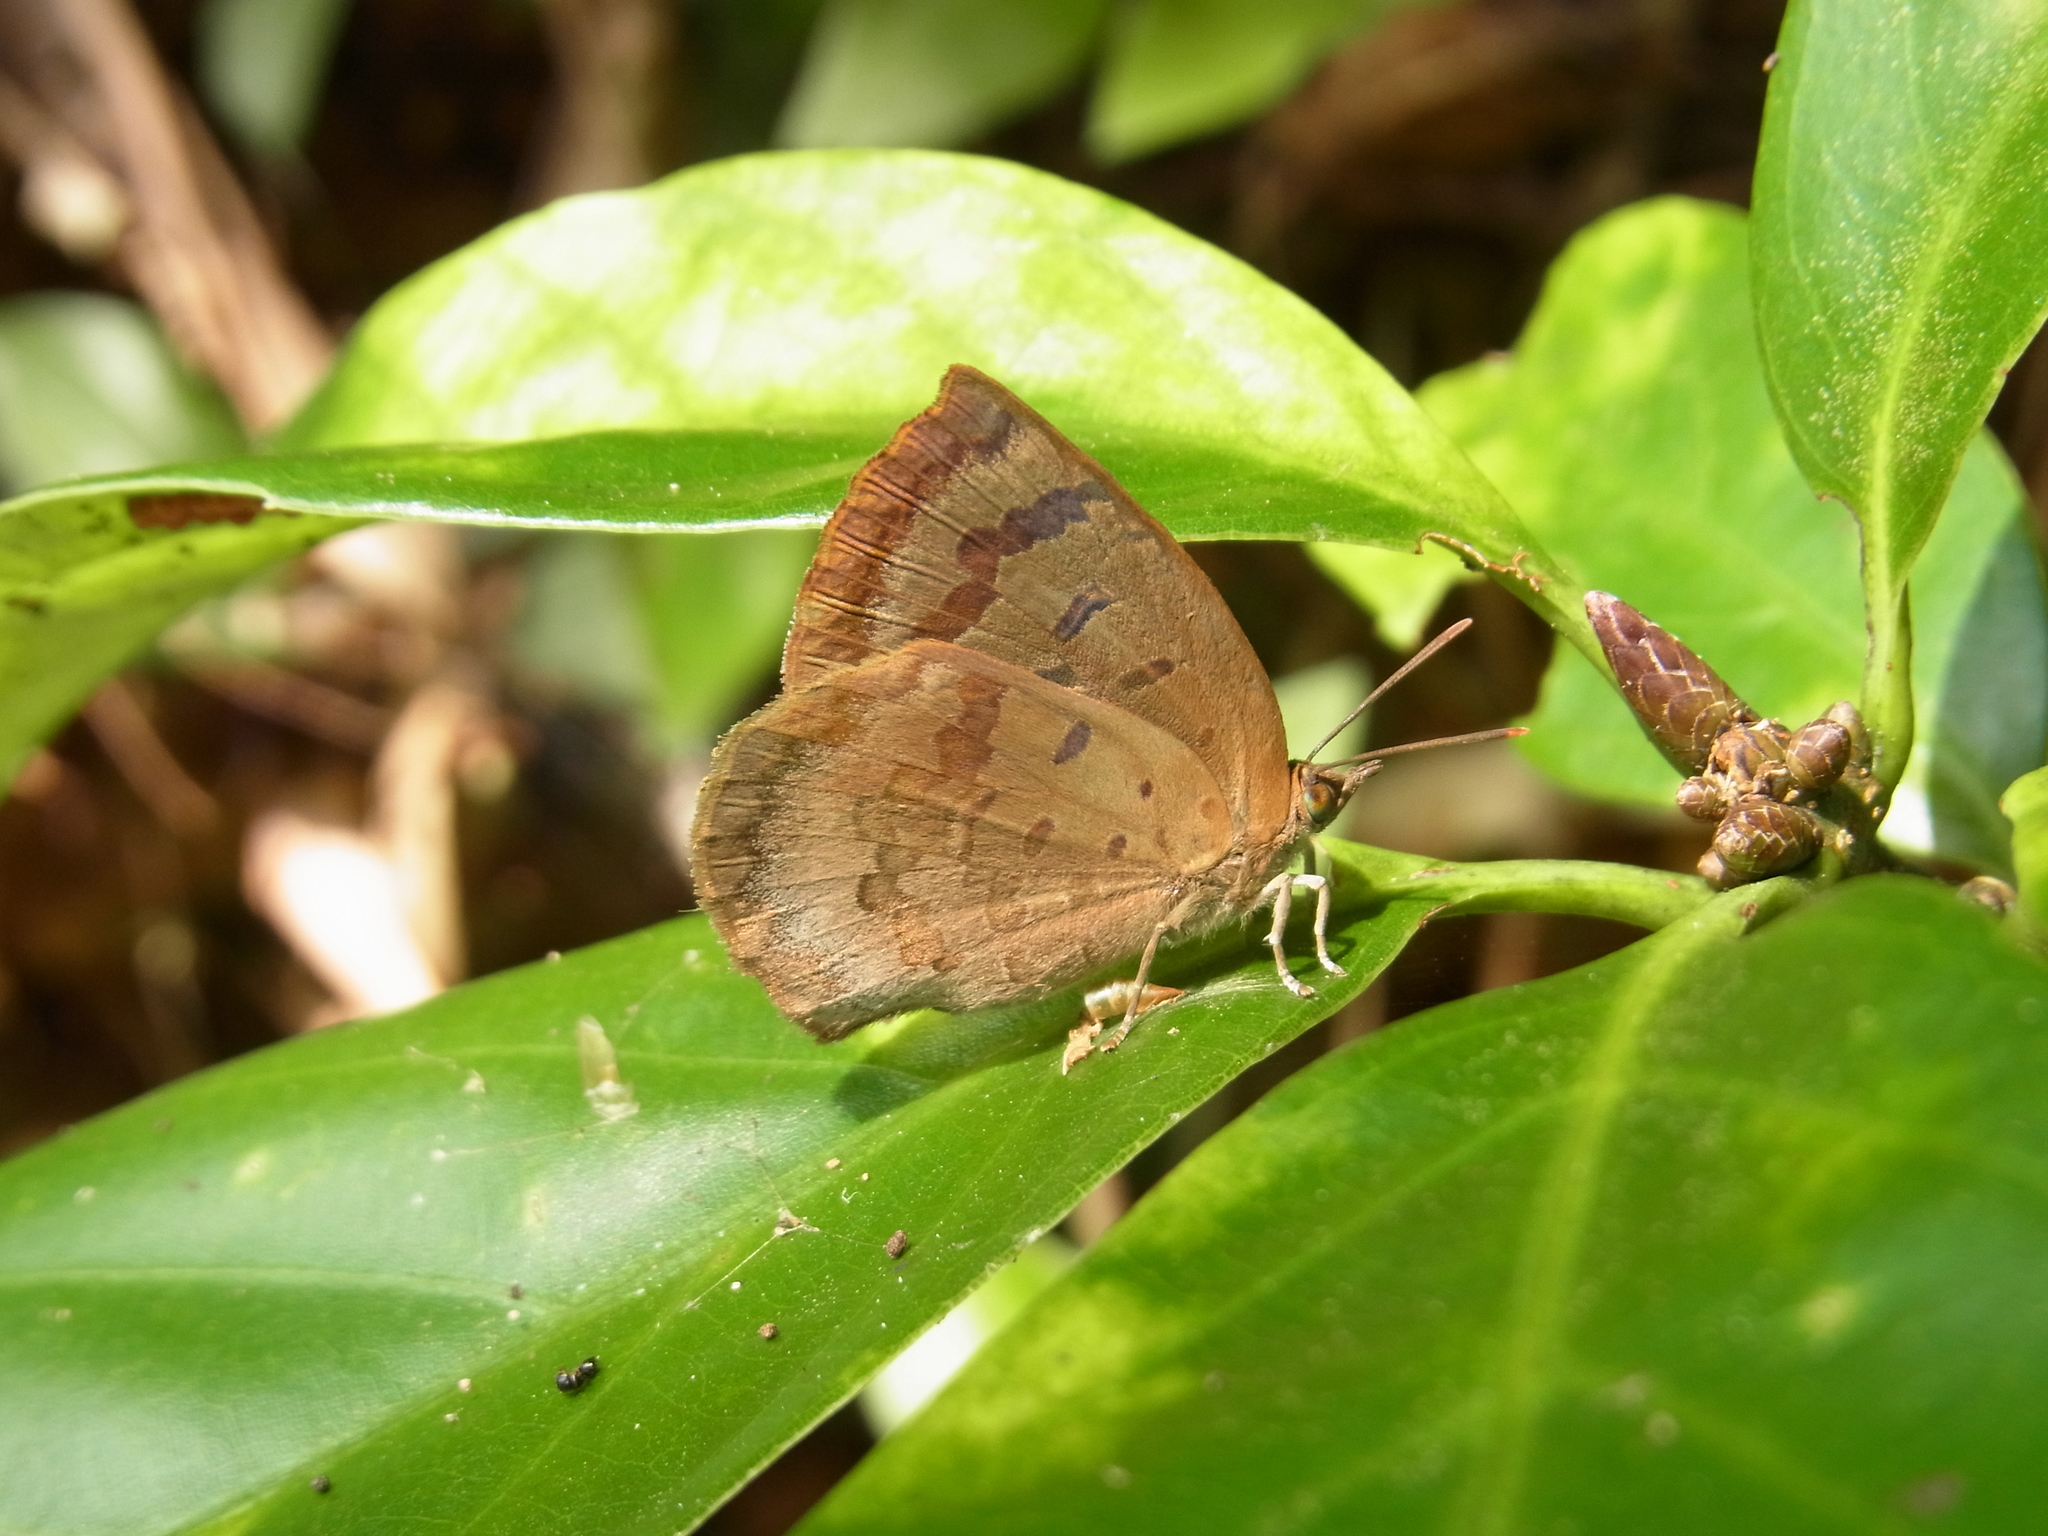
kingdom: Animalia
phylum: Arthropoda
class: Insecta
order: Lepidoptera
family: Lycaenidae
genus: Arhopala
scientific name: Arhopala japonica
